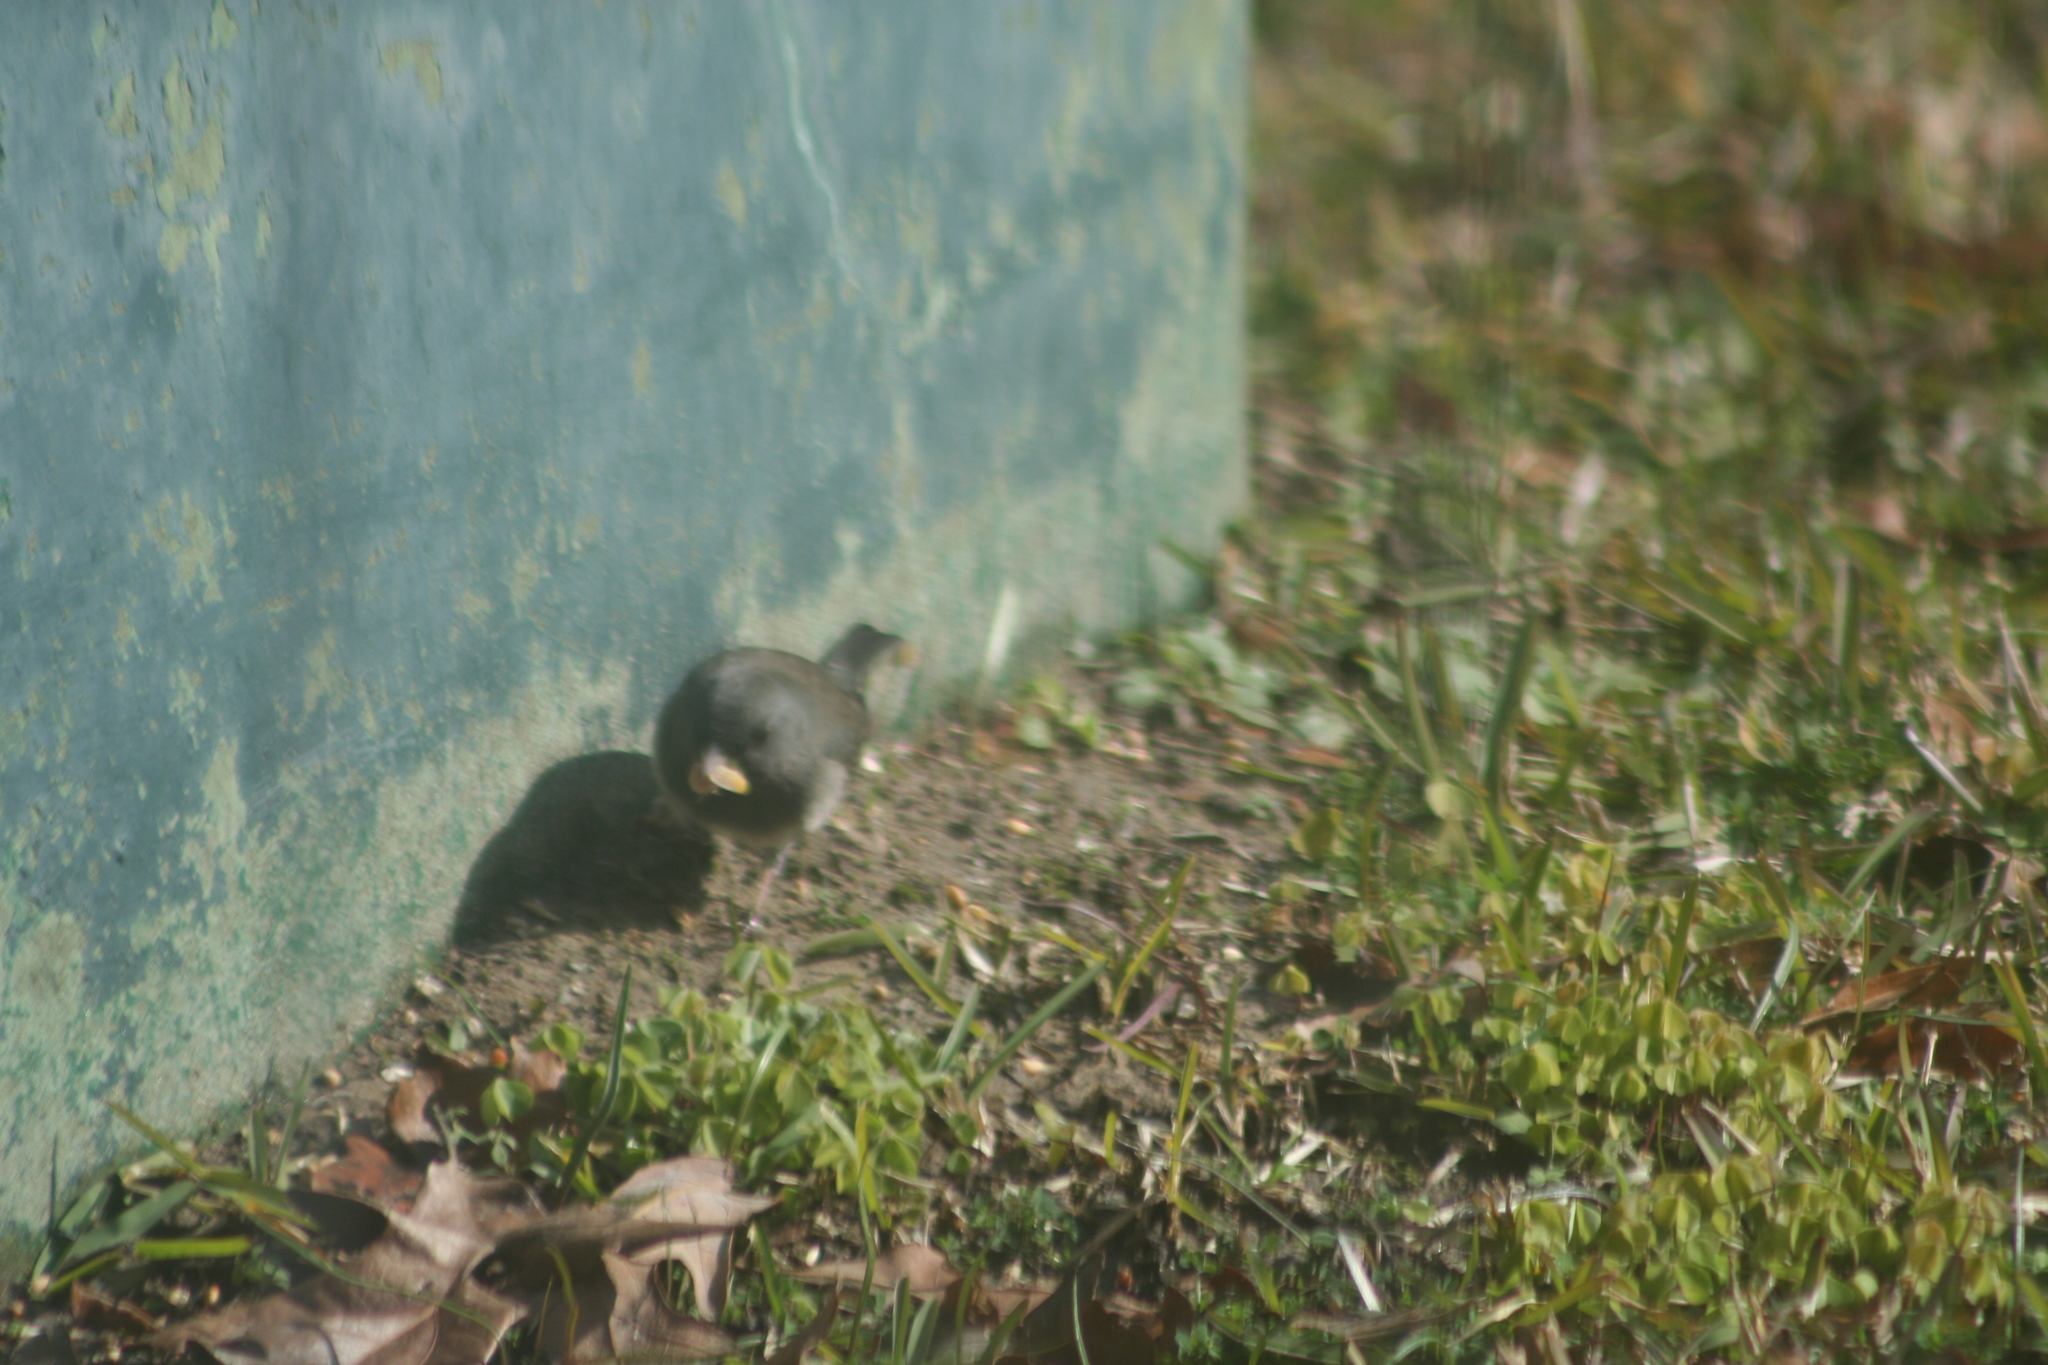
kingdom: Animalia
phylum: Chordata
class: Aves
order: Passeriformes
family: Passerellidae
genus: Junco
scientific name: Junco hyemalis
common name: Dark-eyed junco
